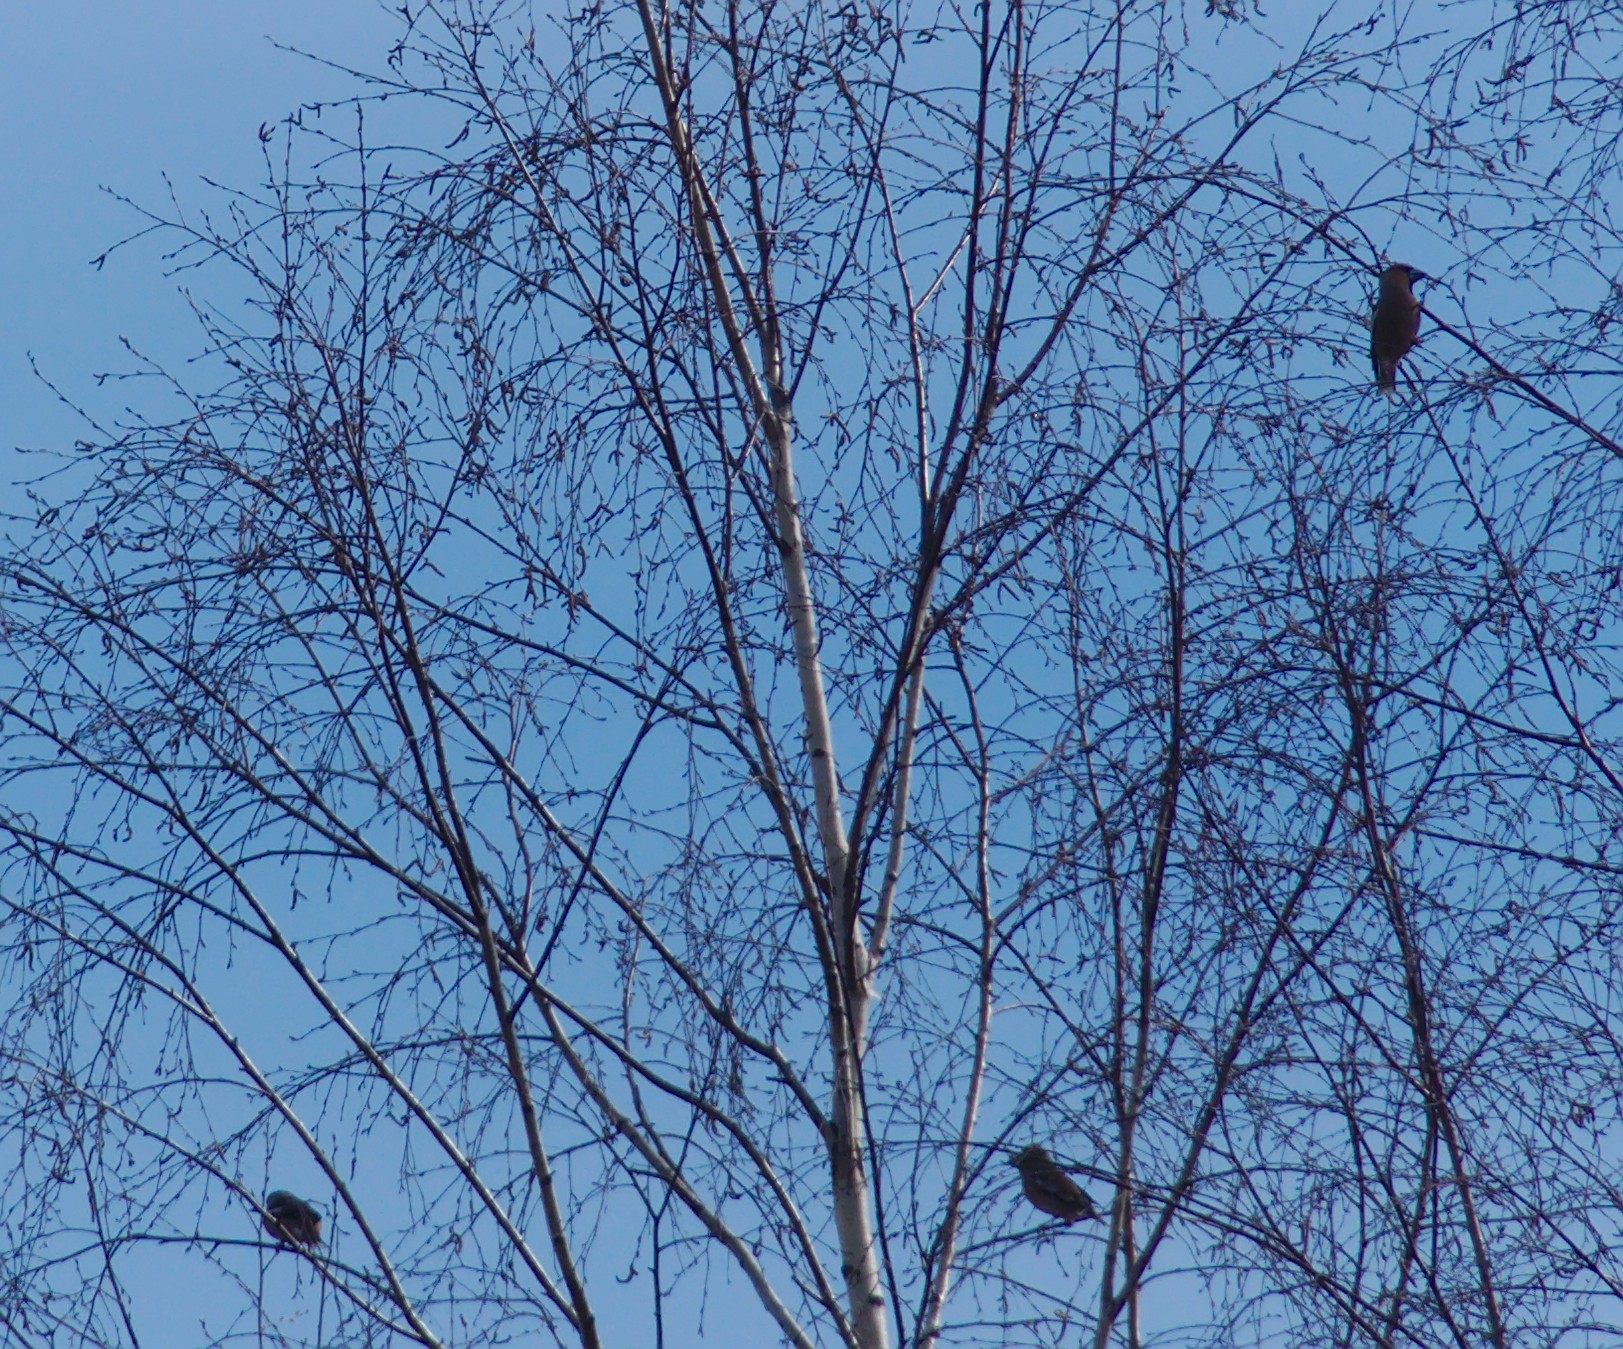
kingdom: Animalia
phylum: Chordata
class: Aves
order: Passeriformes
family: Fringillidae
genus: Coccothraustes
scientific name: Coccothraustes coccothraustes
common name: Hawfinch
